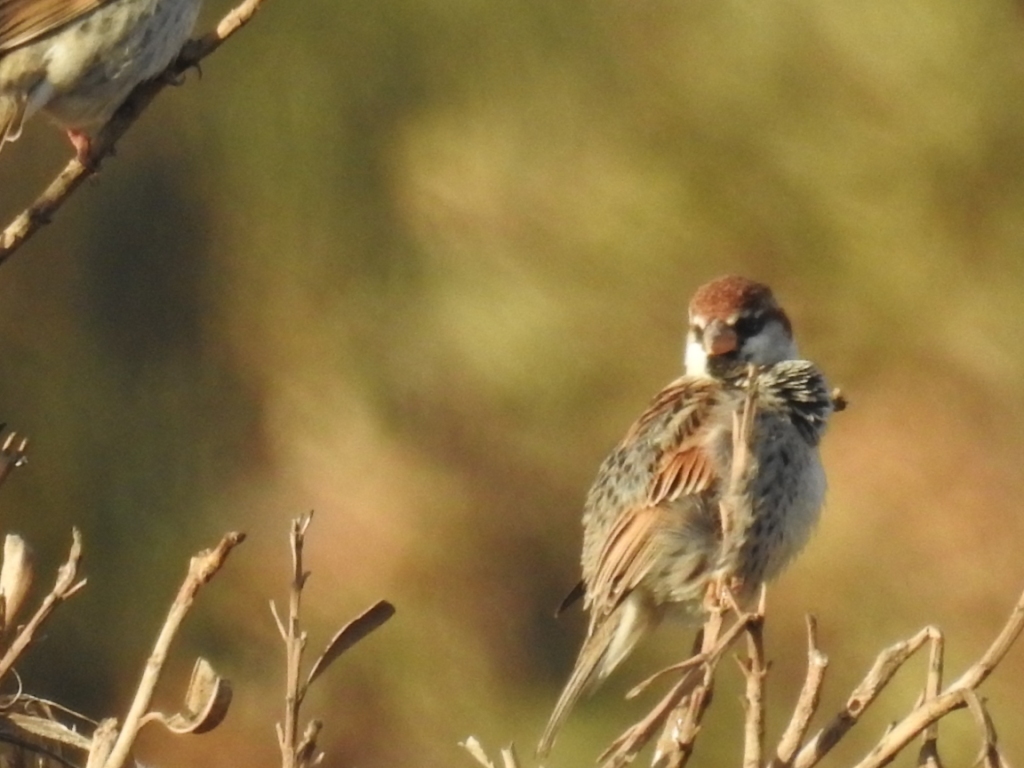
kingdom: Animalia
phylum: Chordata
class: Aves
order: Passeriformes
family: Passeridae
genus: Passer
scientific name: Passer hispaniolensis
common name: Spanish sparrow
